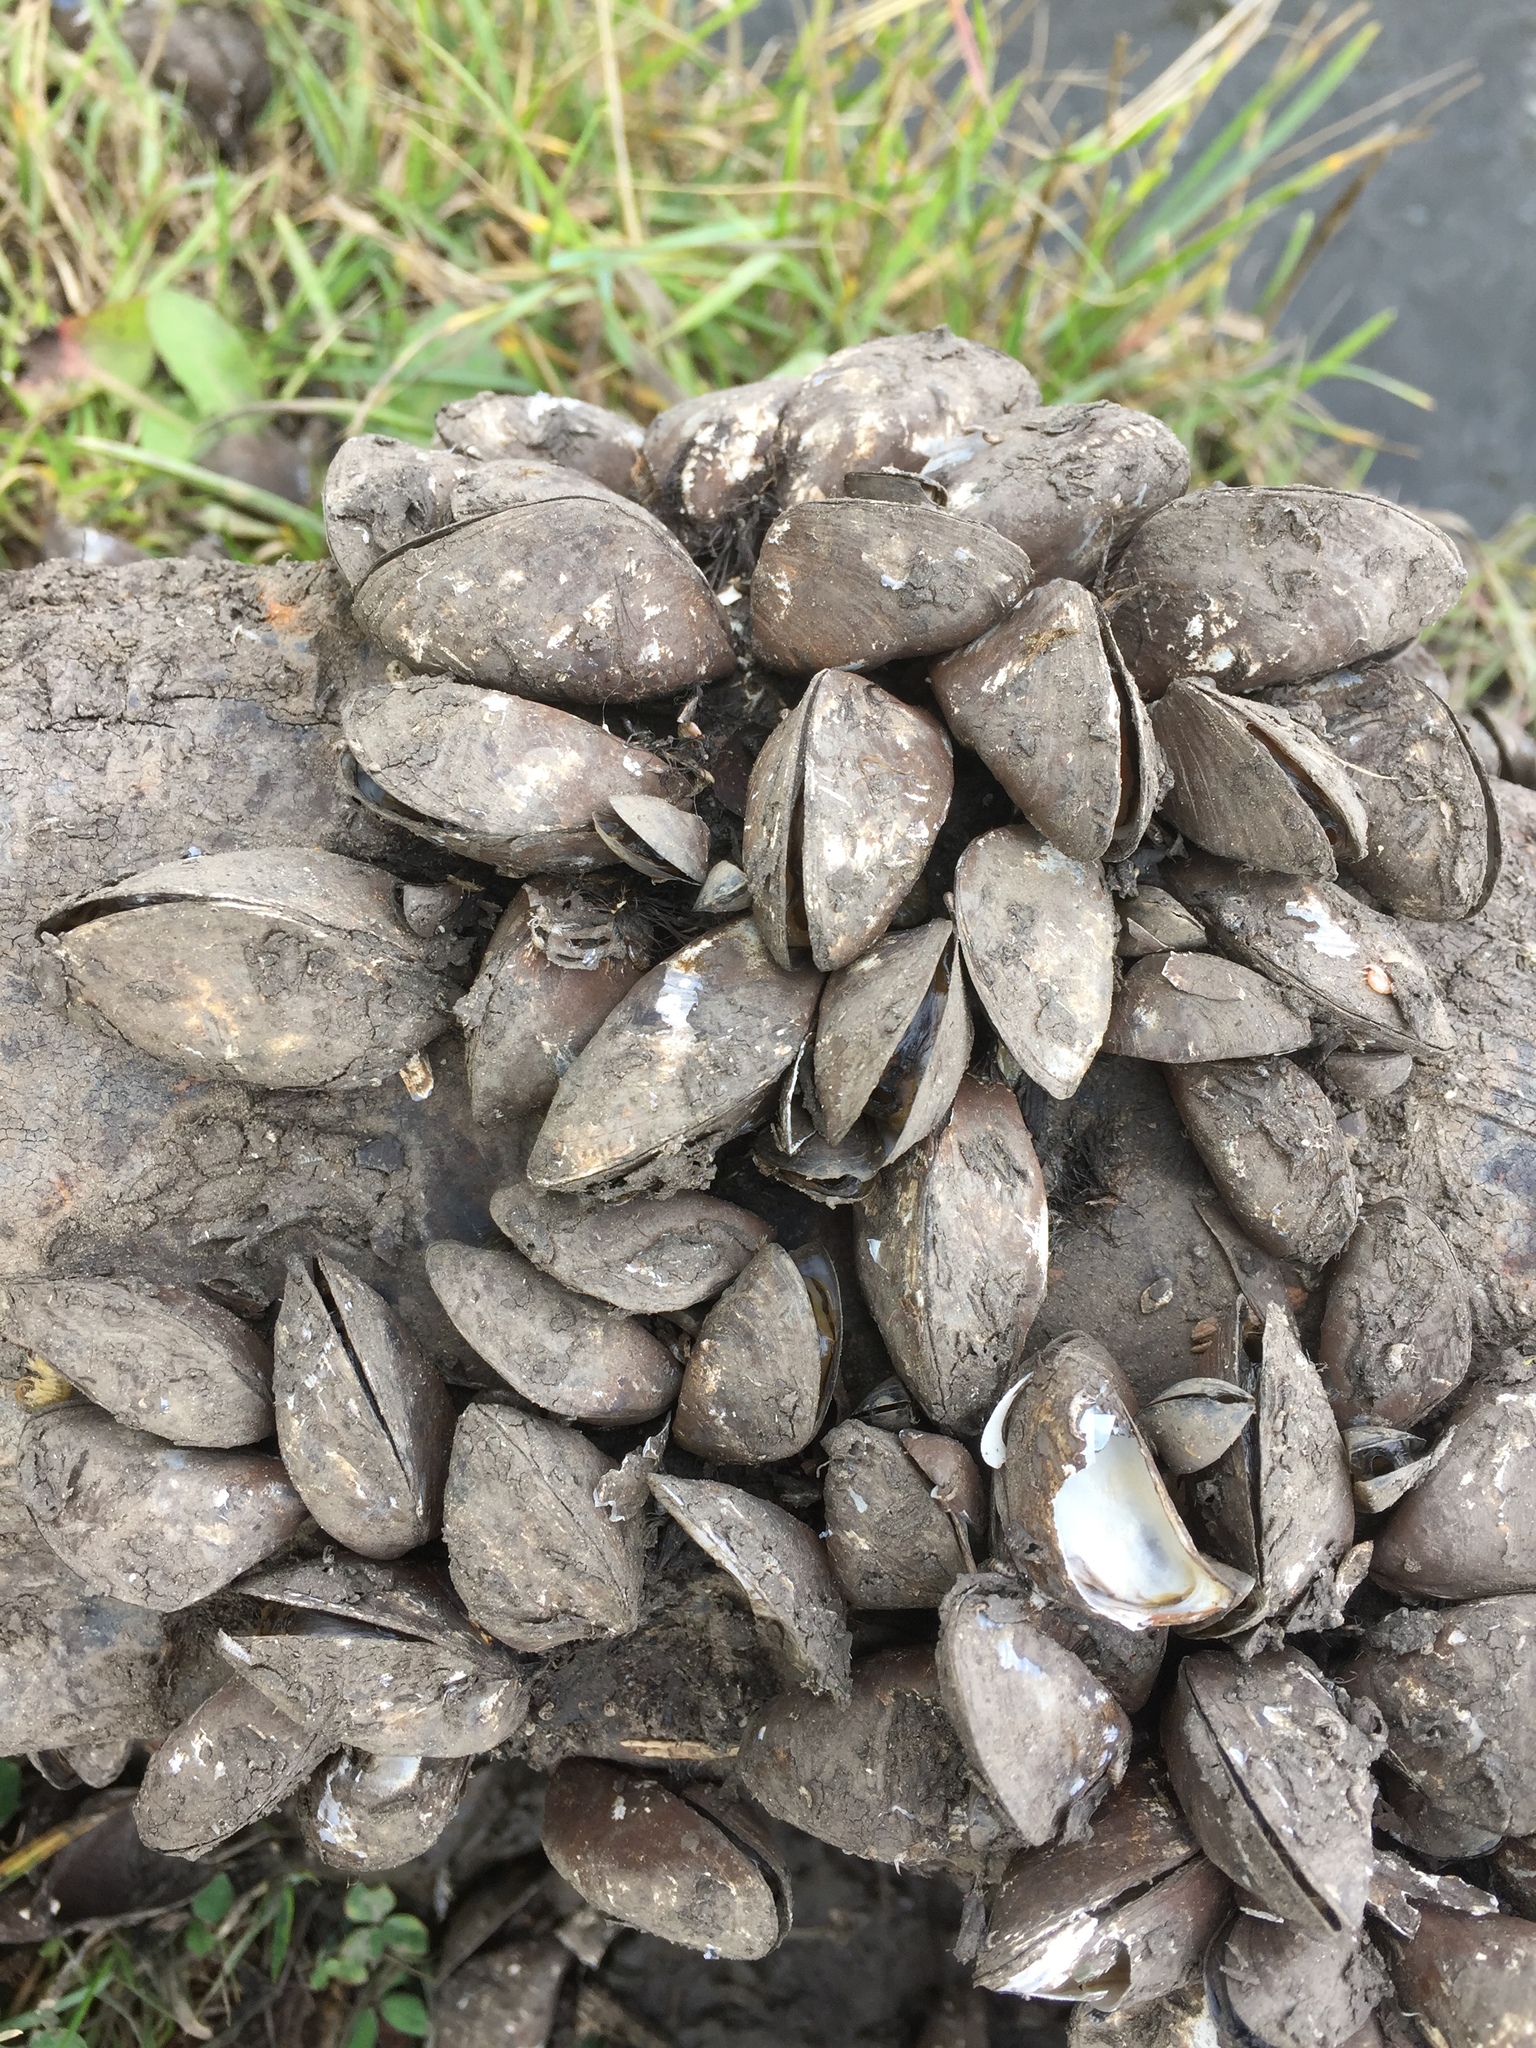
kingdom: Animalia
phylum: Mollusca
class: Bivalvia
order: Myida
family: Dreissenidae
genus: Dreissena
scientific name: Dreissena polymorpha
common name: Zebra mussel
